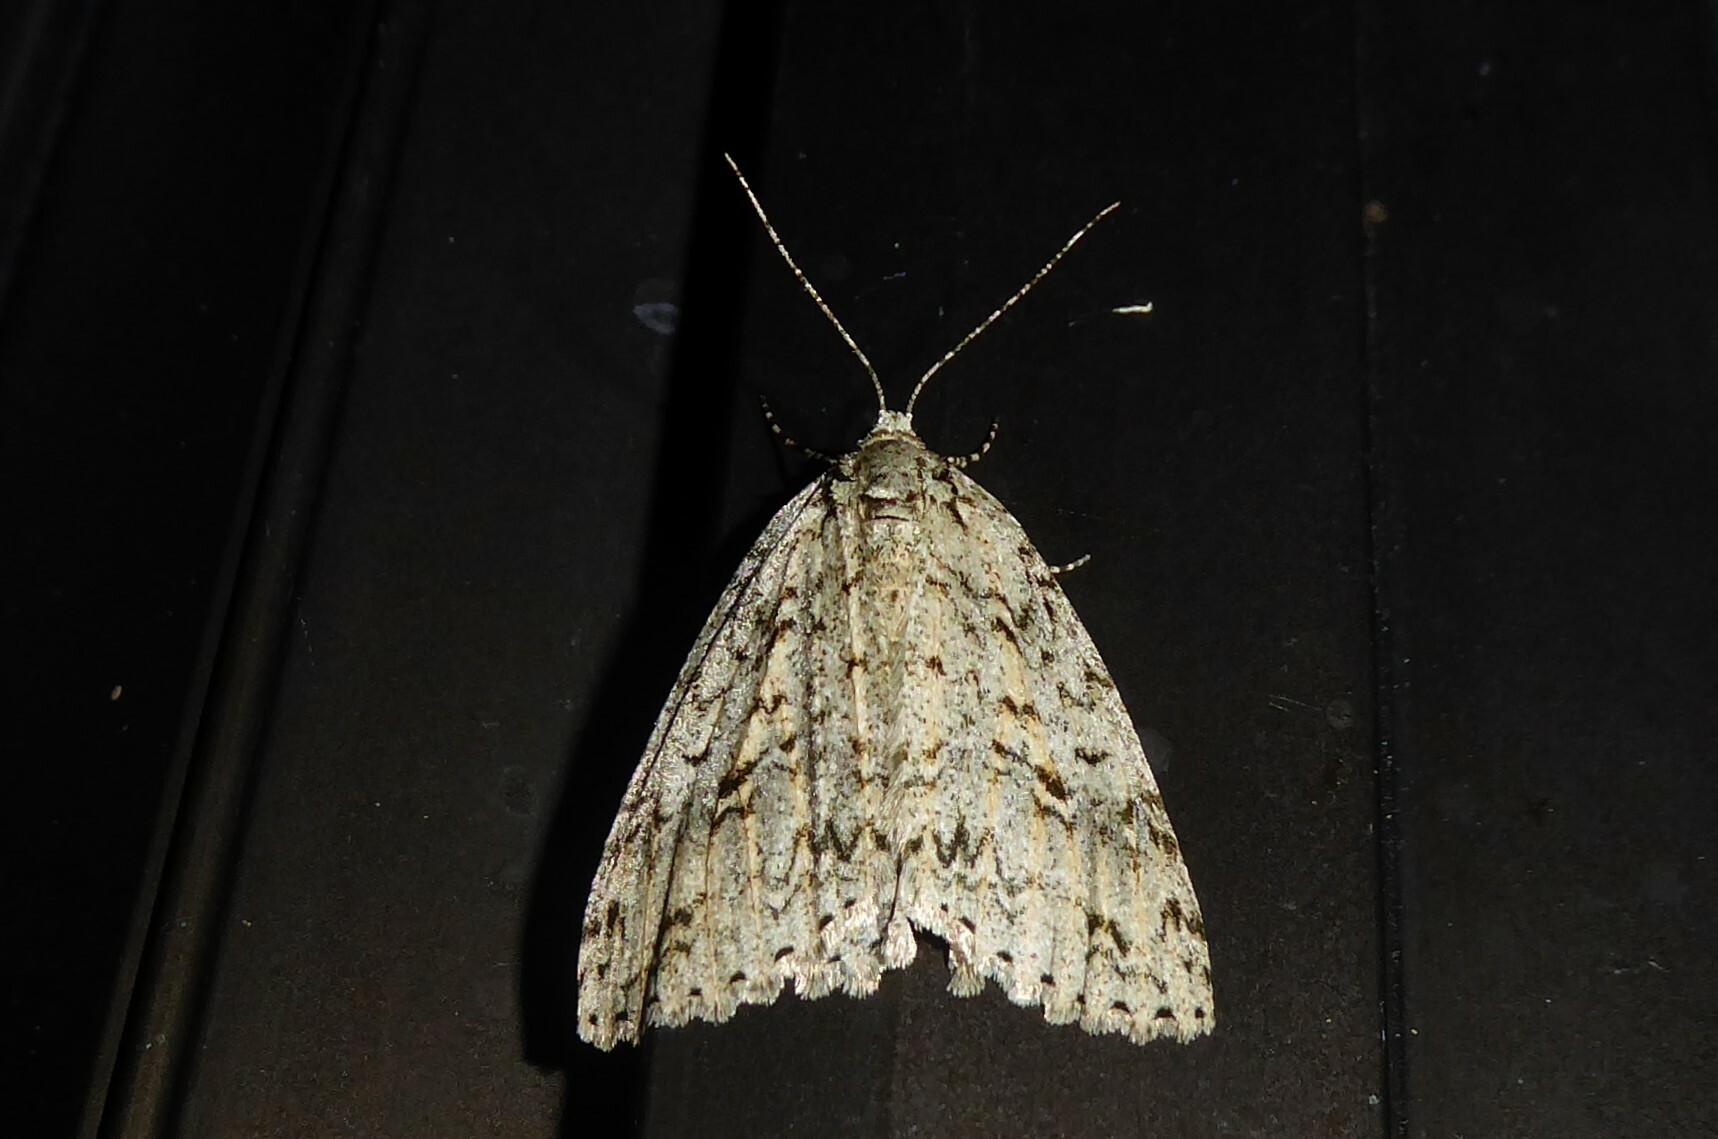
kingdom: Animalia
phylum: Arthropoda
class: Insecta
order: Lepidoptera
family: Geometridae
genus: Pseudocoremia
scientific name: Pseudocoremia rudisata
